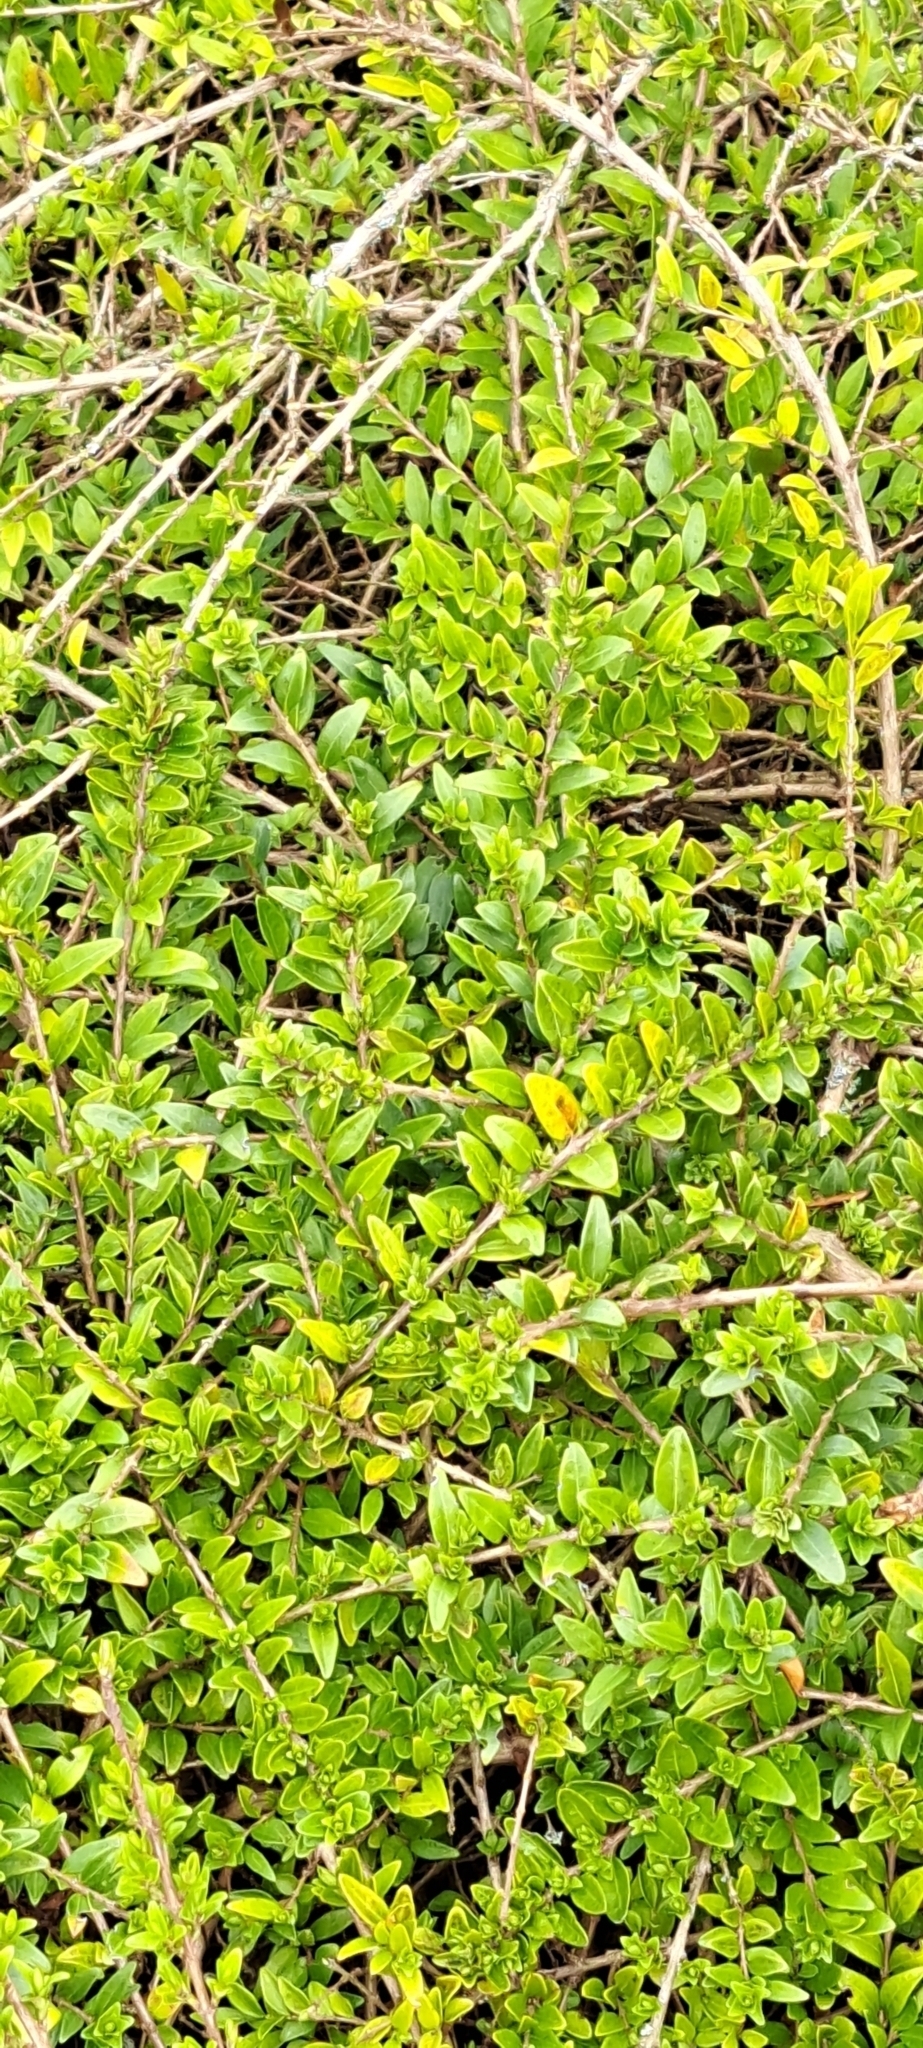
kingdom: Plantae
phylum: Tracheophyta
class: Magnoliopsida
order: Dipsacales
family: Caprifoliaceae
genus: Lonicera
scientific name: Lonicera ligustrina
